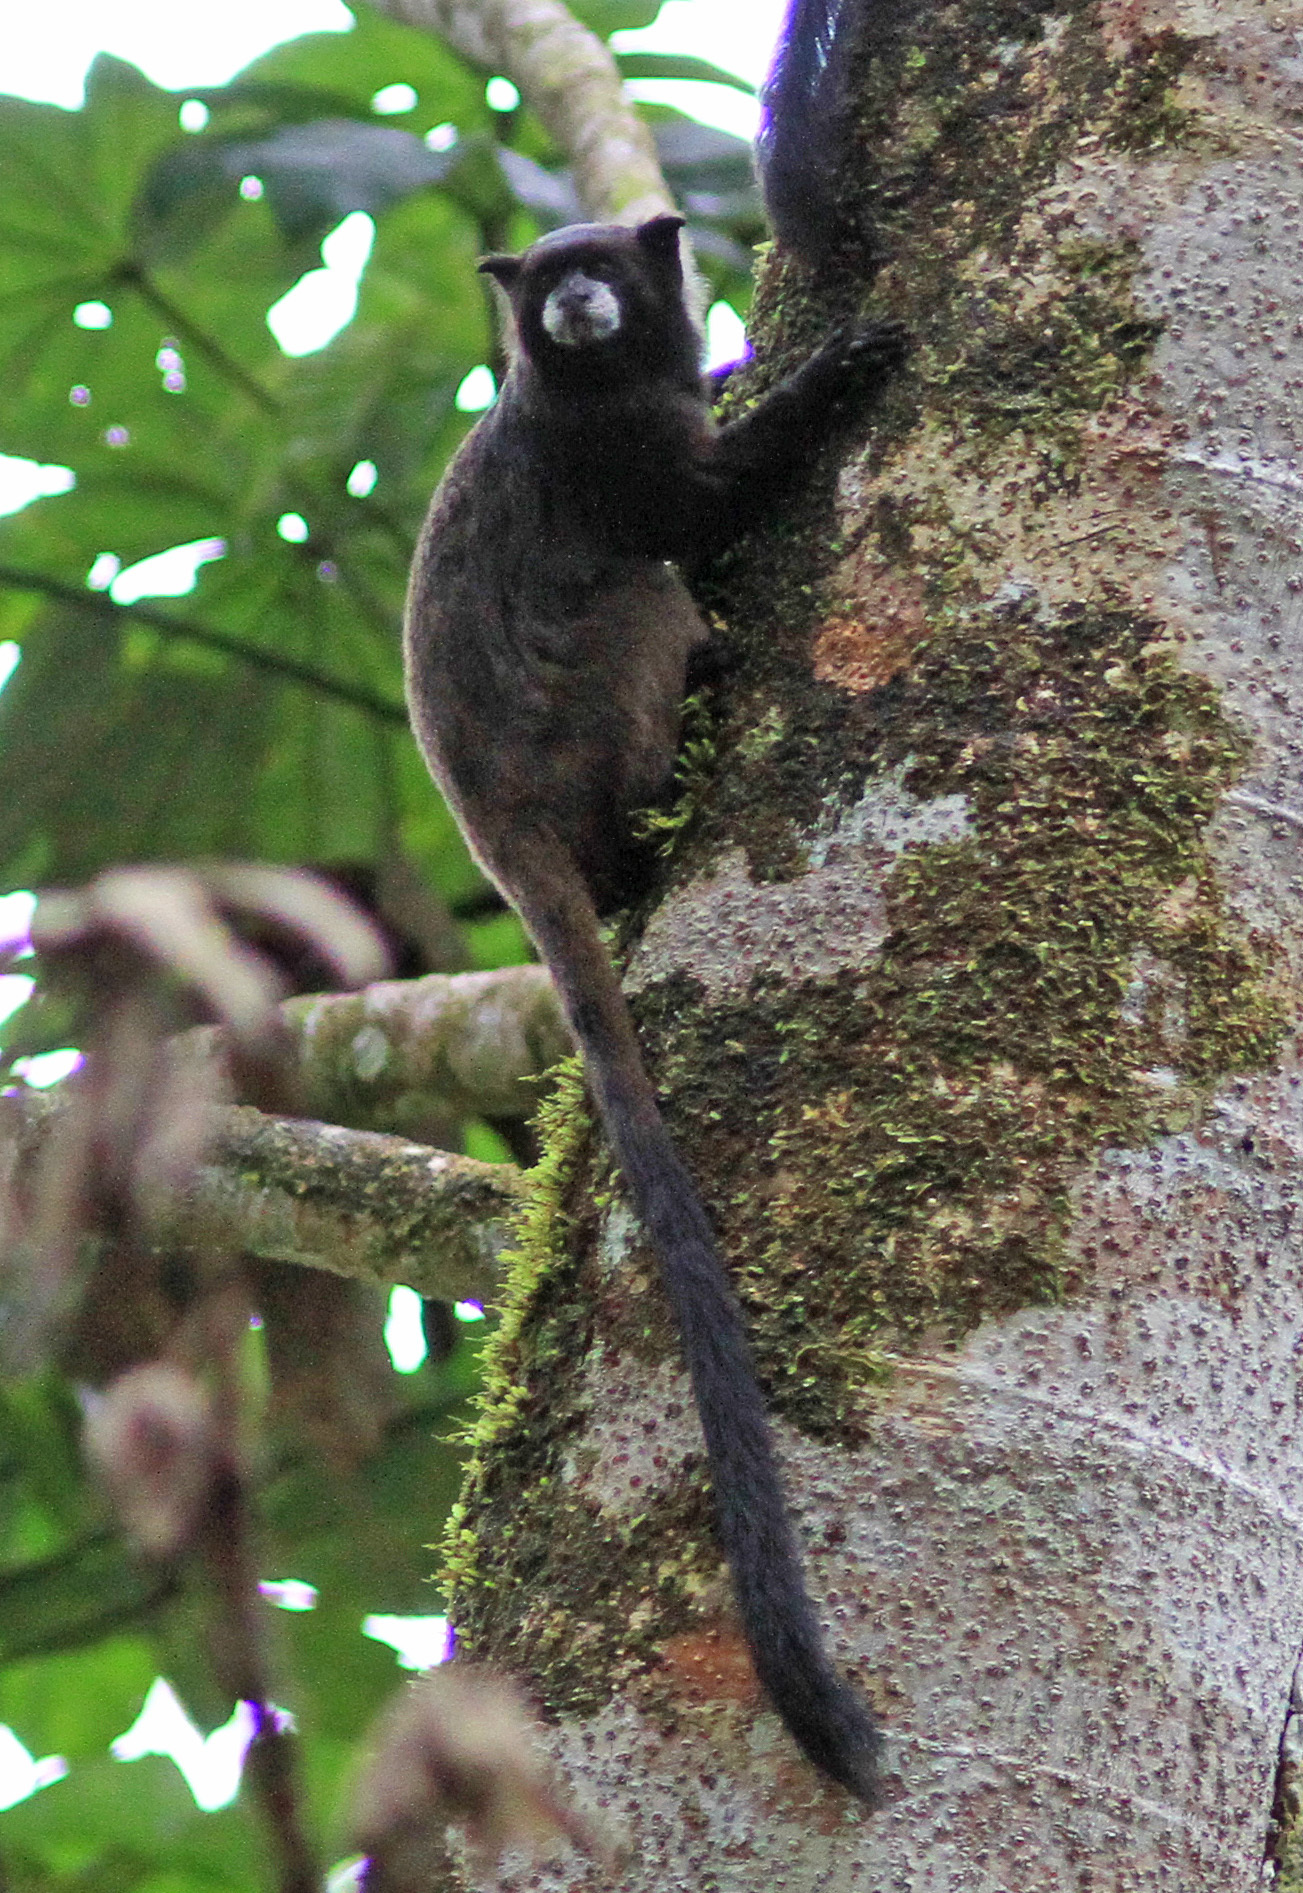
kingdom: Animalia
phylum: Chordata
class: Mammalia
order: Primates
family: Callitrichidae
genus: Leontocebus
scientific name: Leontocebus nigricollis
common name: Black-mantled tamarin
